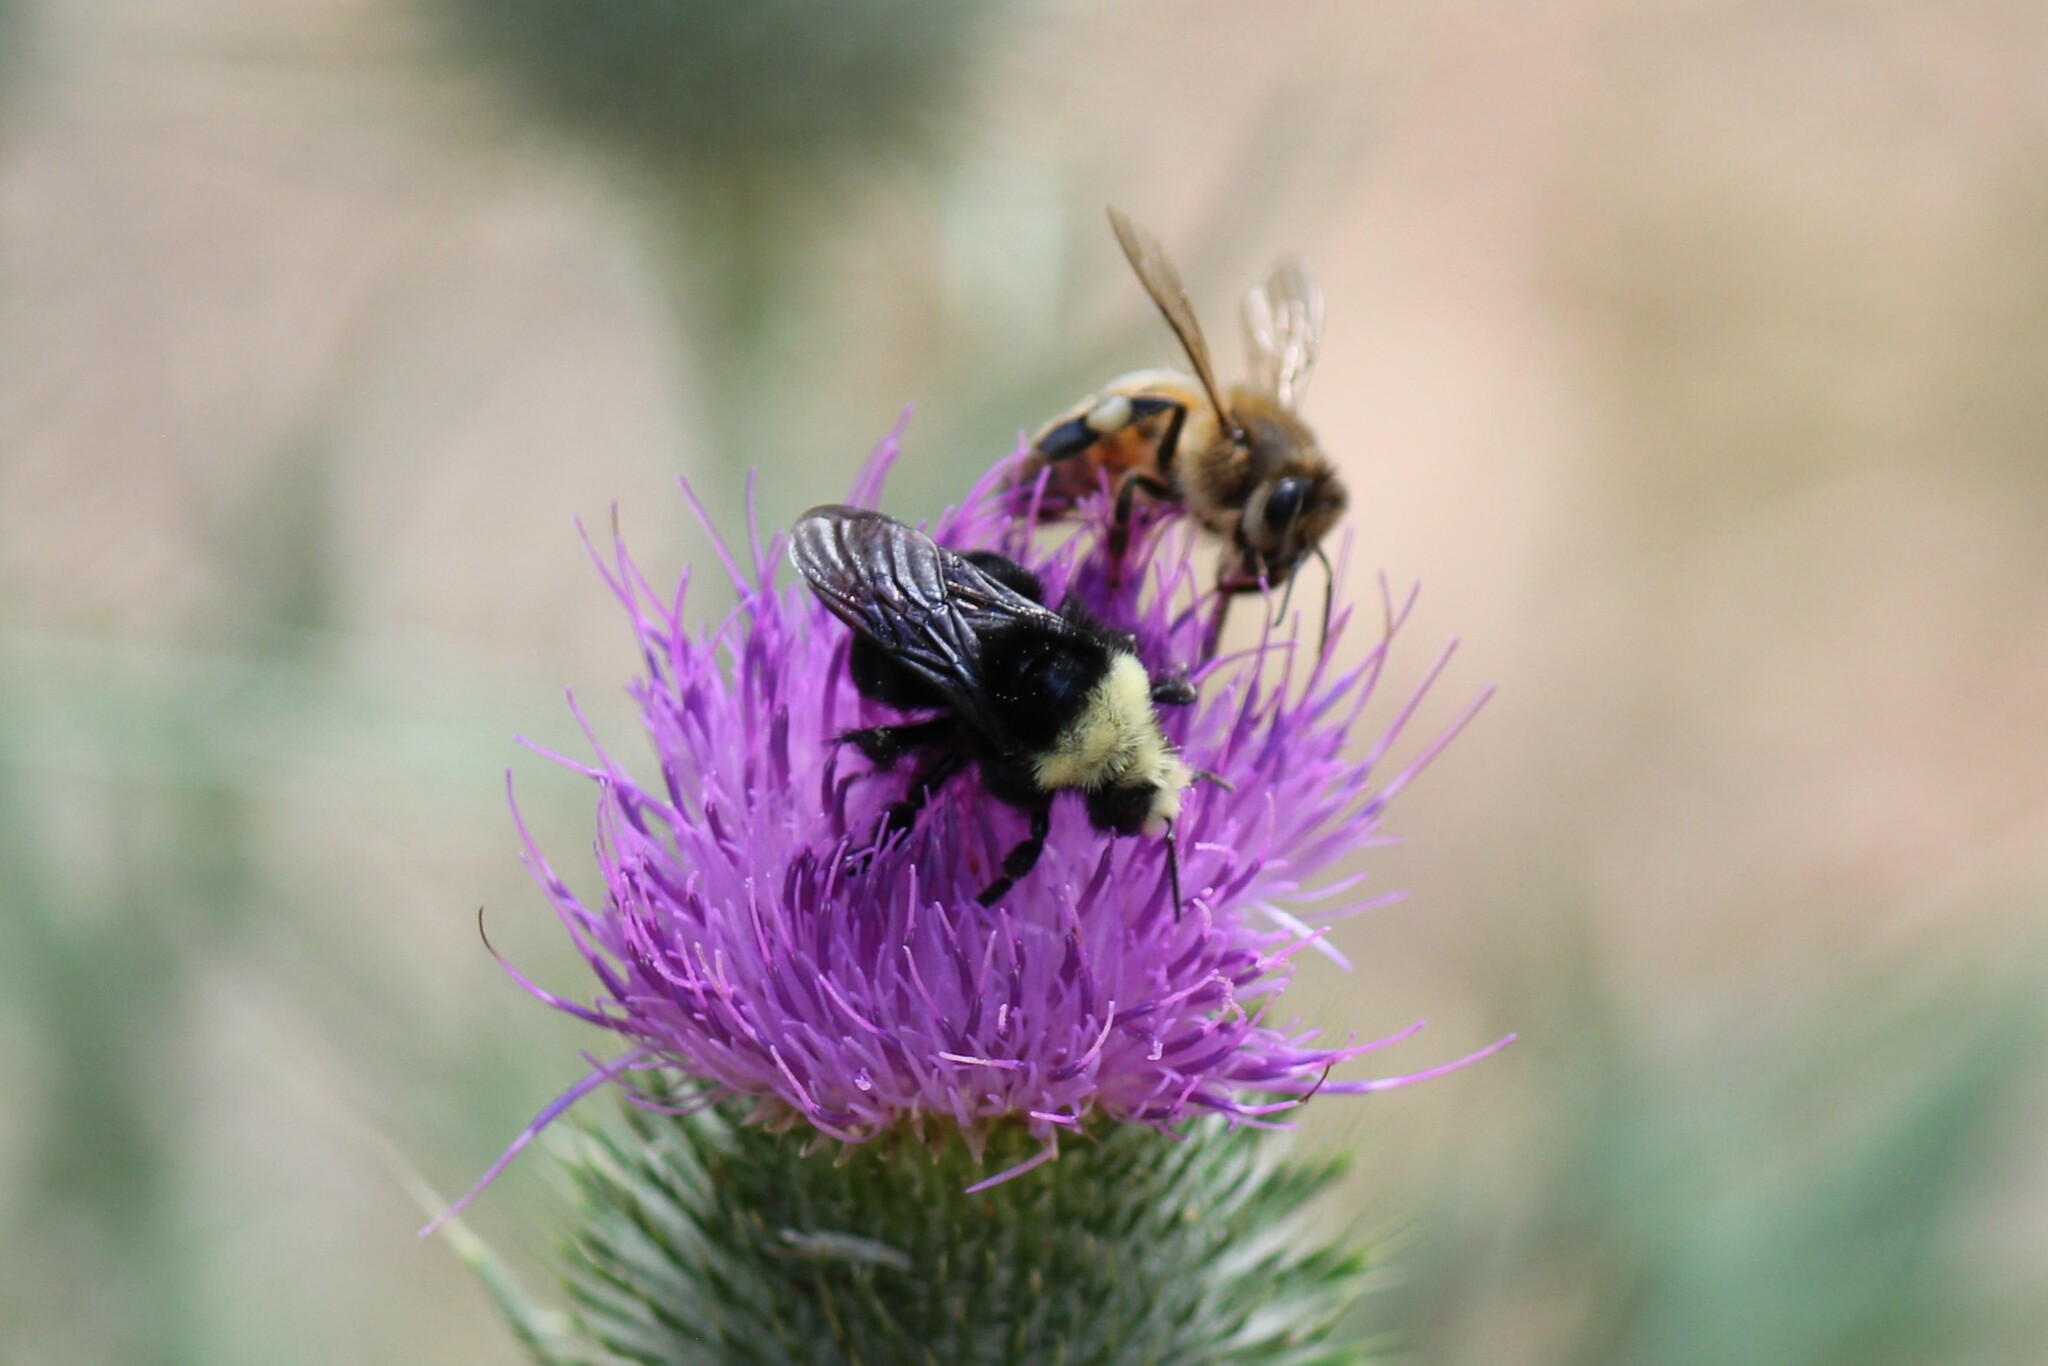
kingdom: Animalia
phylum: Arthropoda
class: Insecta
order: Hymenoptera
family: Apidae
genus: Bombus
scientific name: Bombus vosnesenskii
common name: Vosnesensky bumble bee
